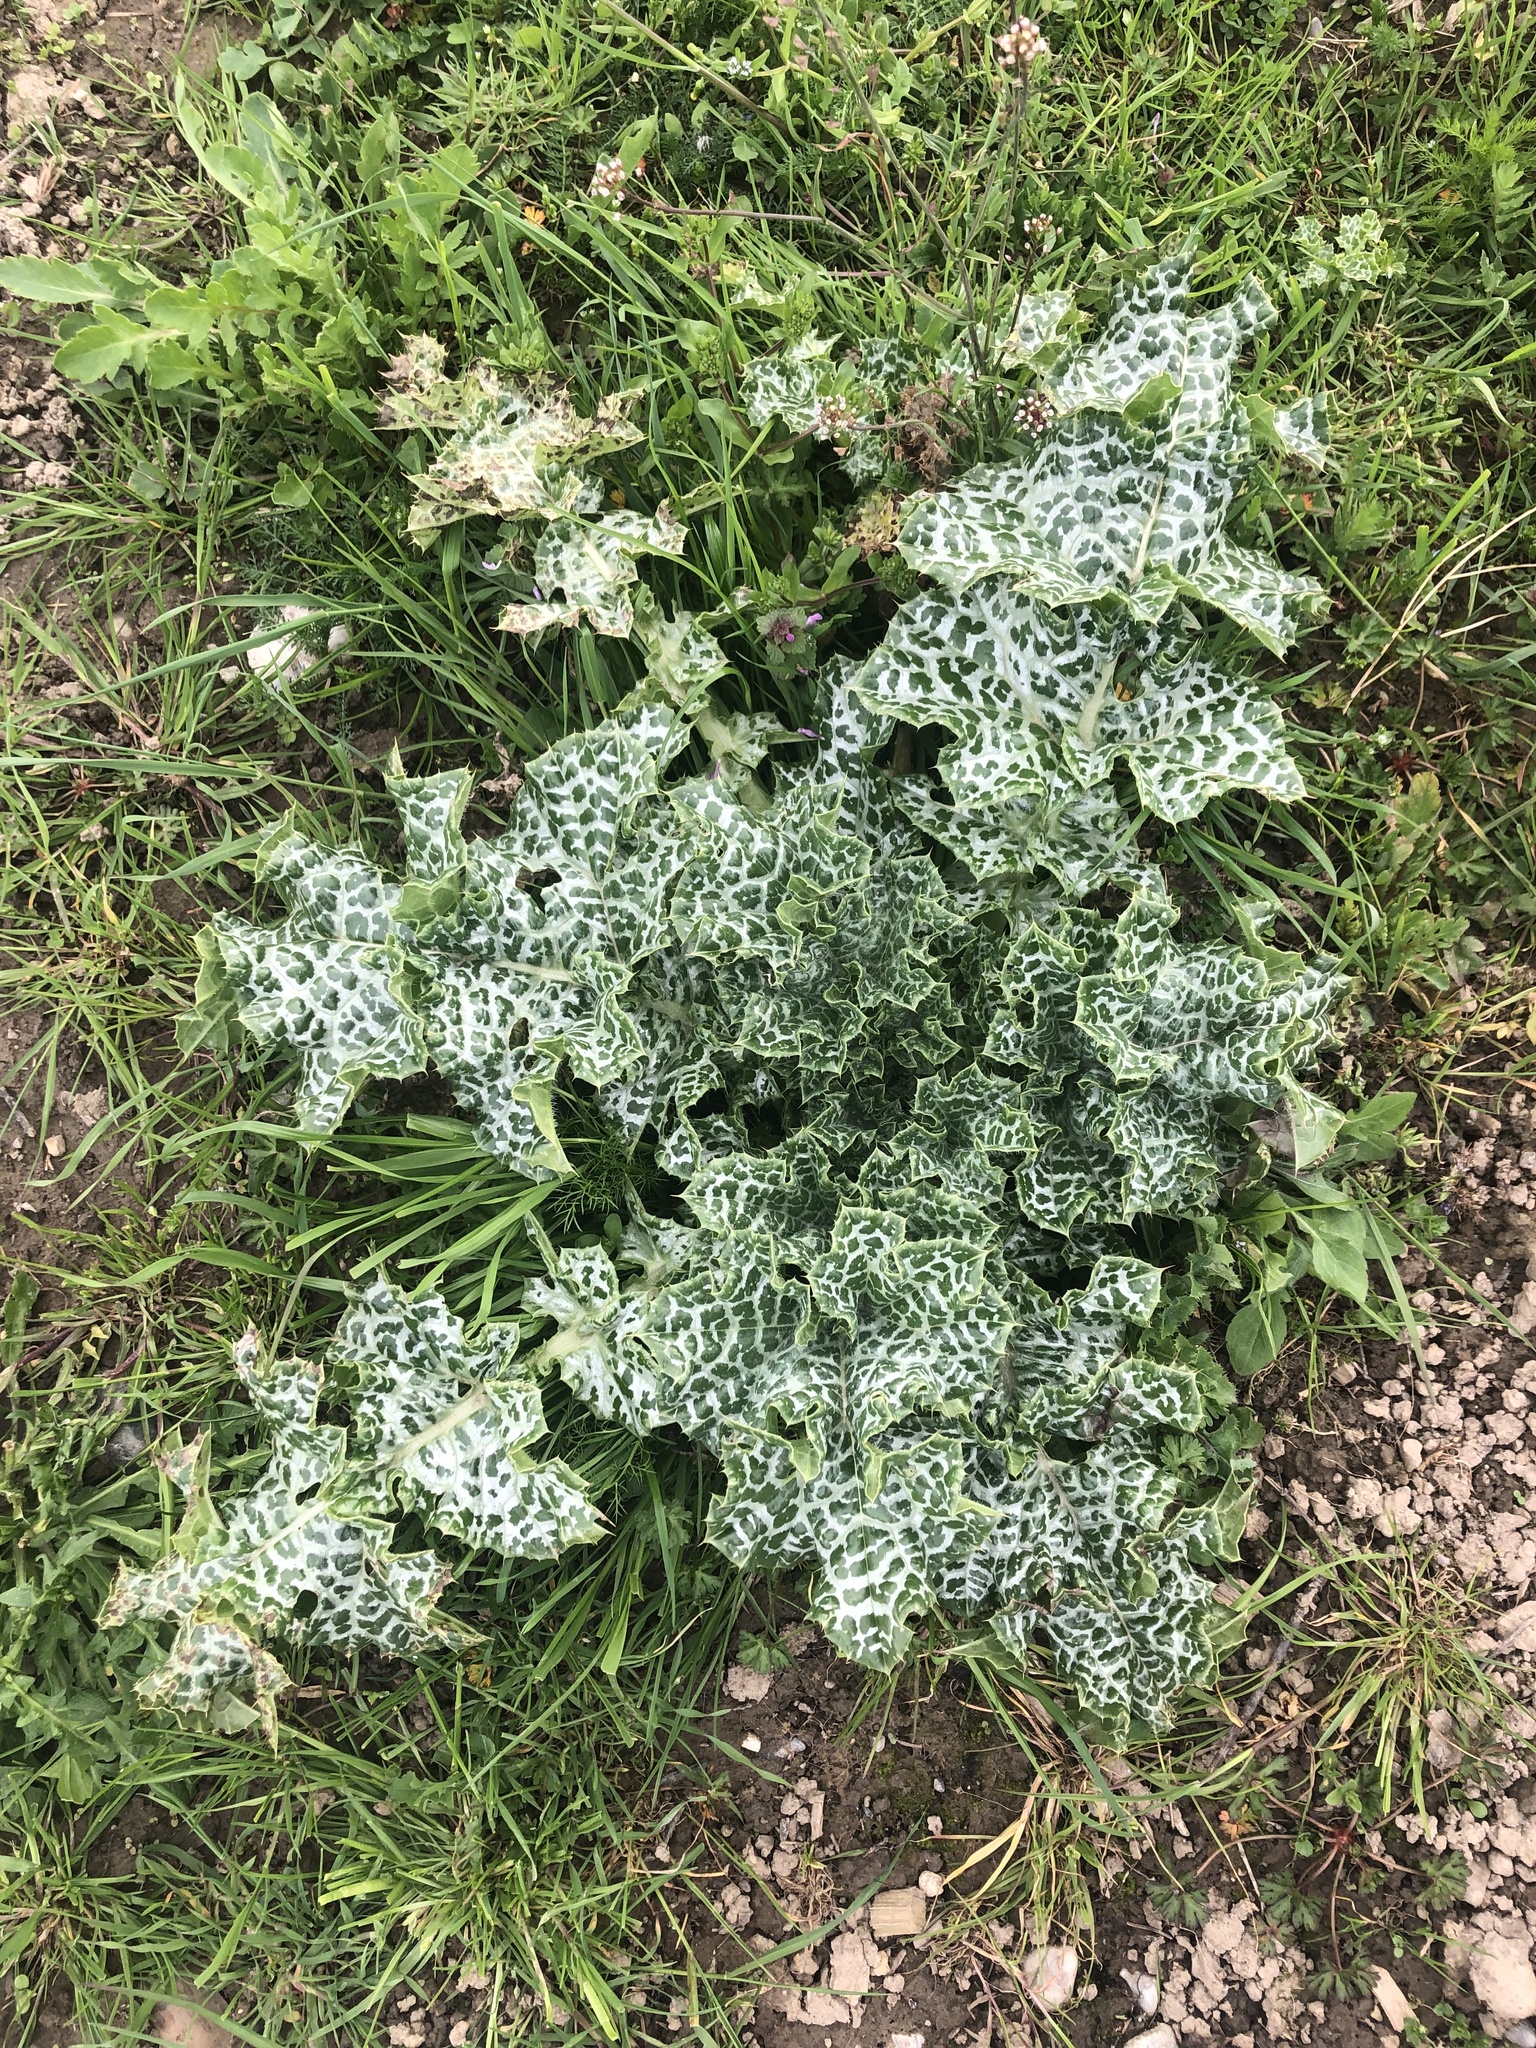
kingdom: Plantae
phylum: Tracheophyta
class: Magnoliopsida
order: Asterales
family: Asteraceae
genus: Silybum
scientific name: Silybum marianum
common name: Milk thistle
